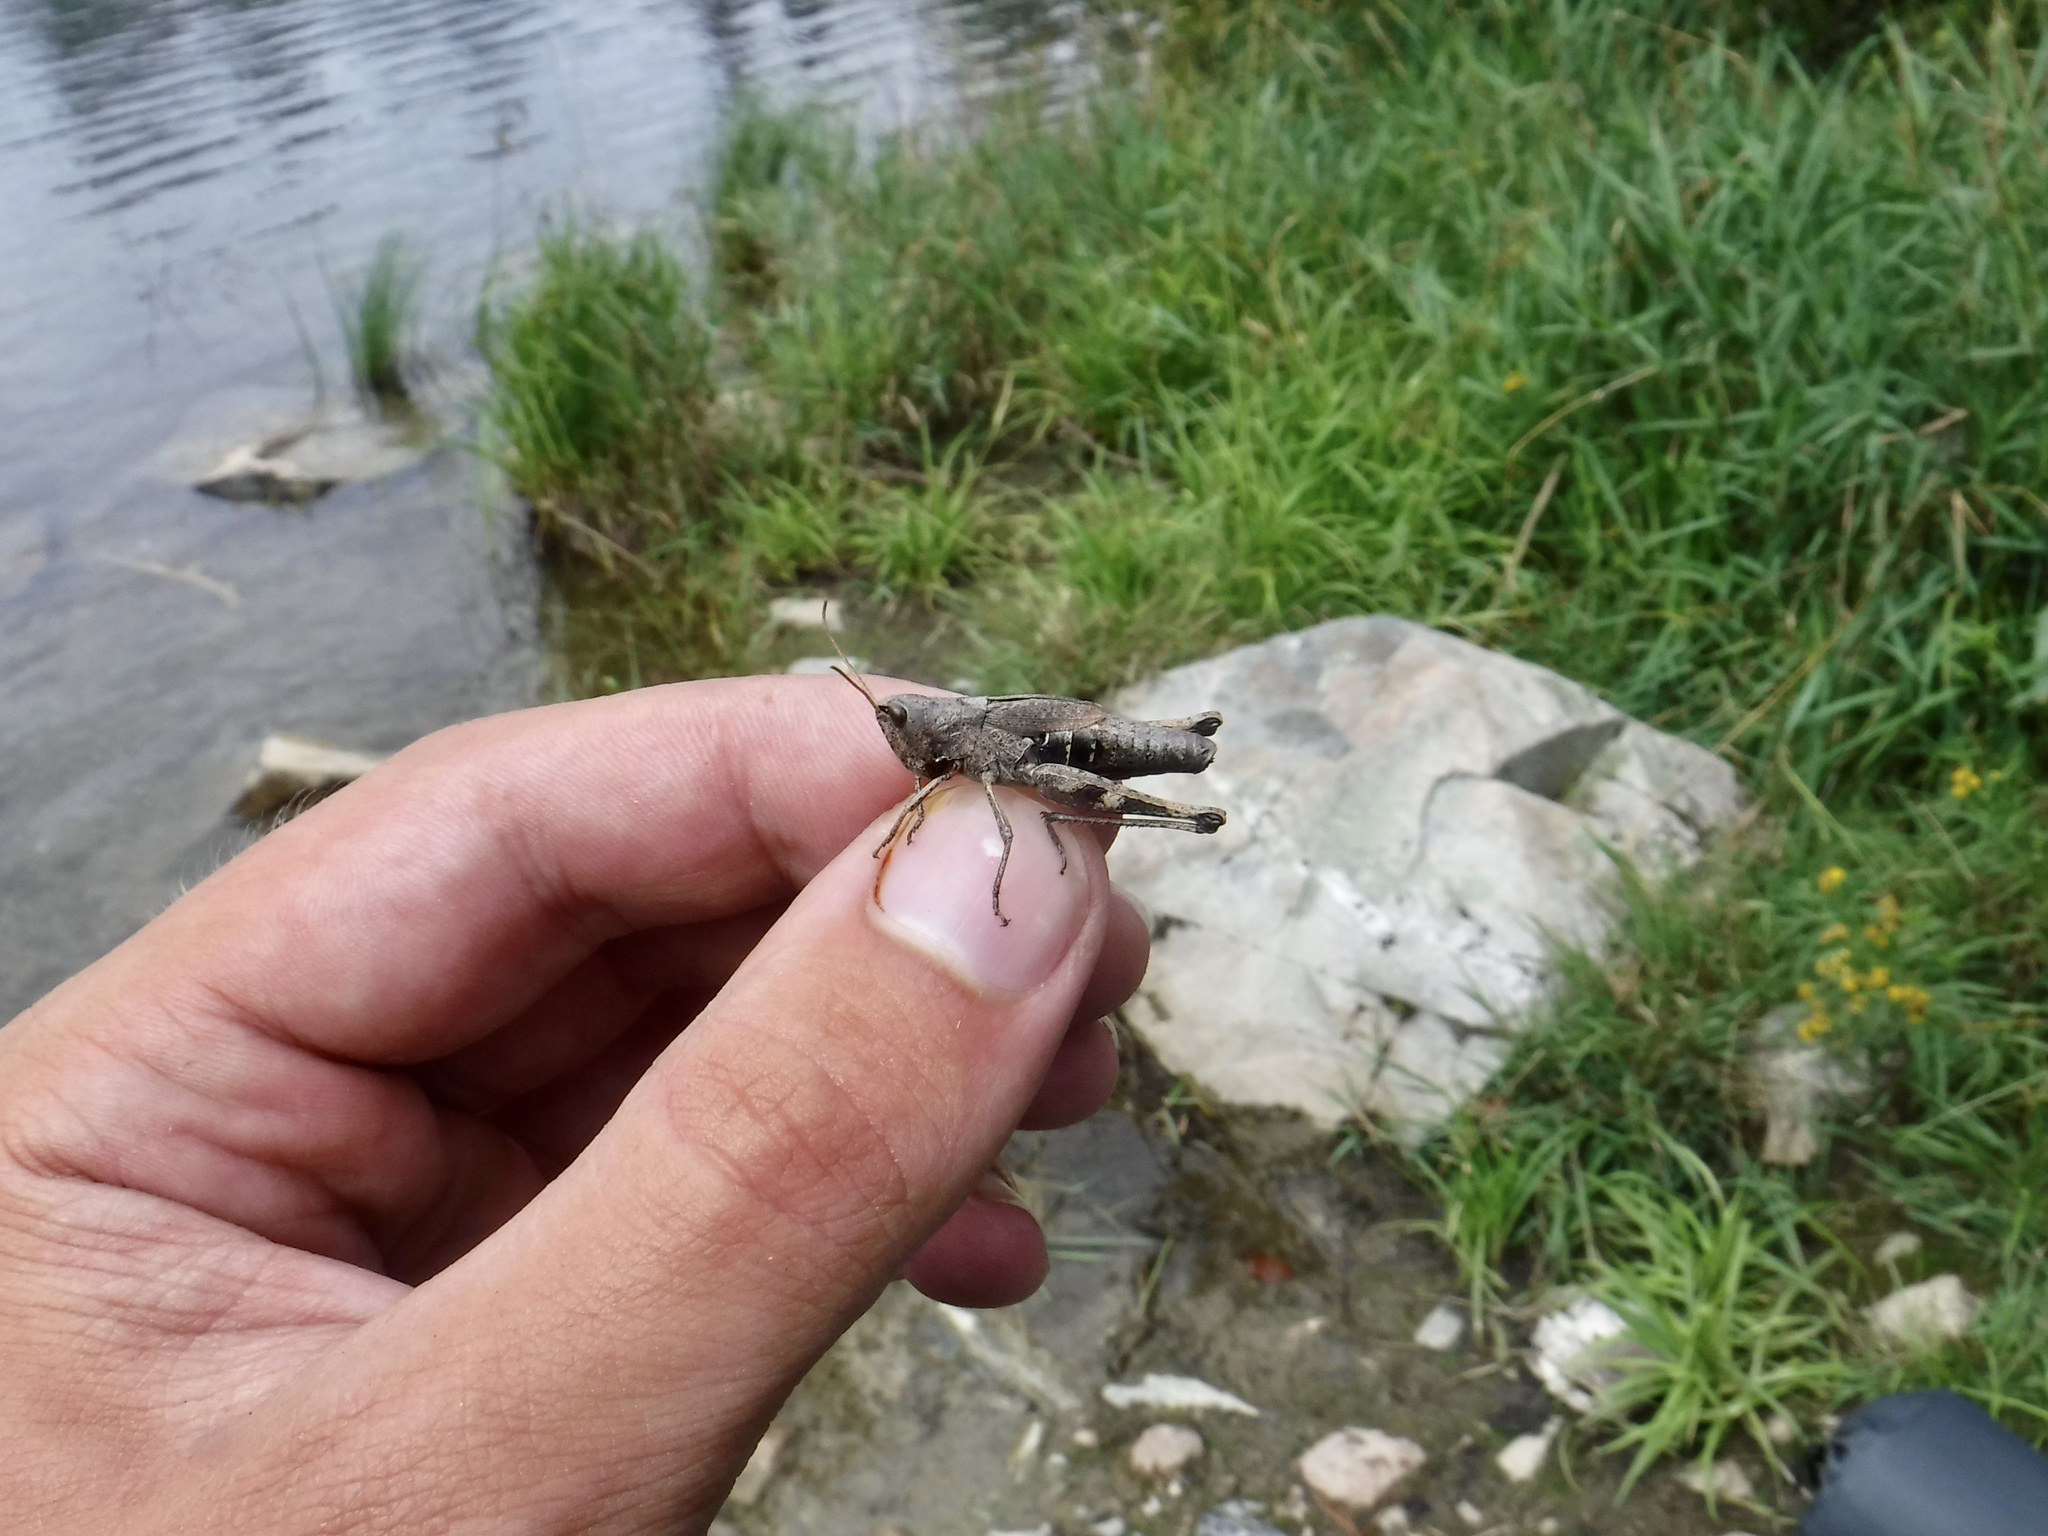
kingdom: Animalia
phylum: Arthropoda
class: Insecta
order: Orthoptera
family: Acrididae
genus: Chloealtis
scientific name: Chloealtis conspersa
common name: Sprinkled broad-winged grasshopper
